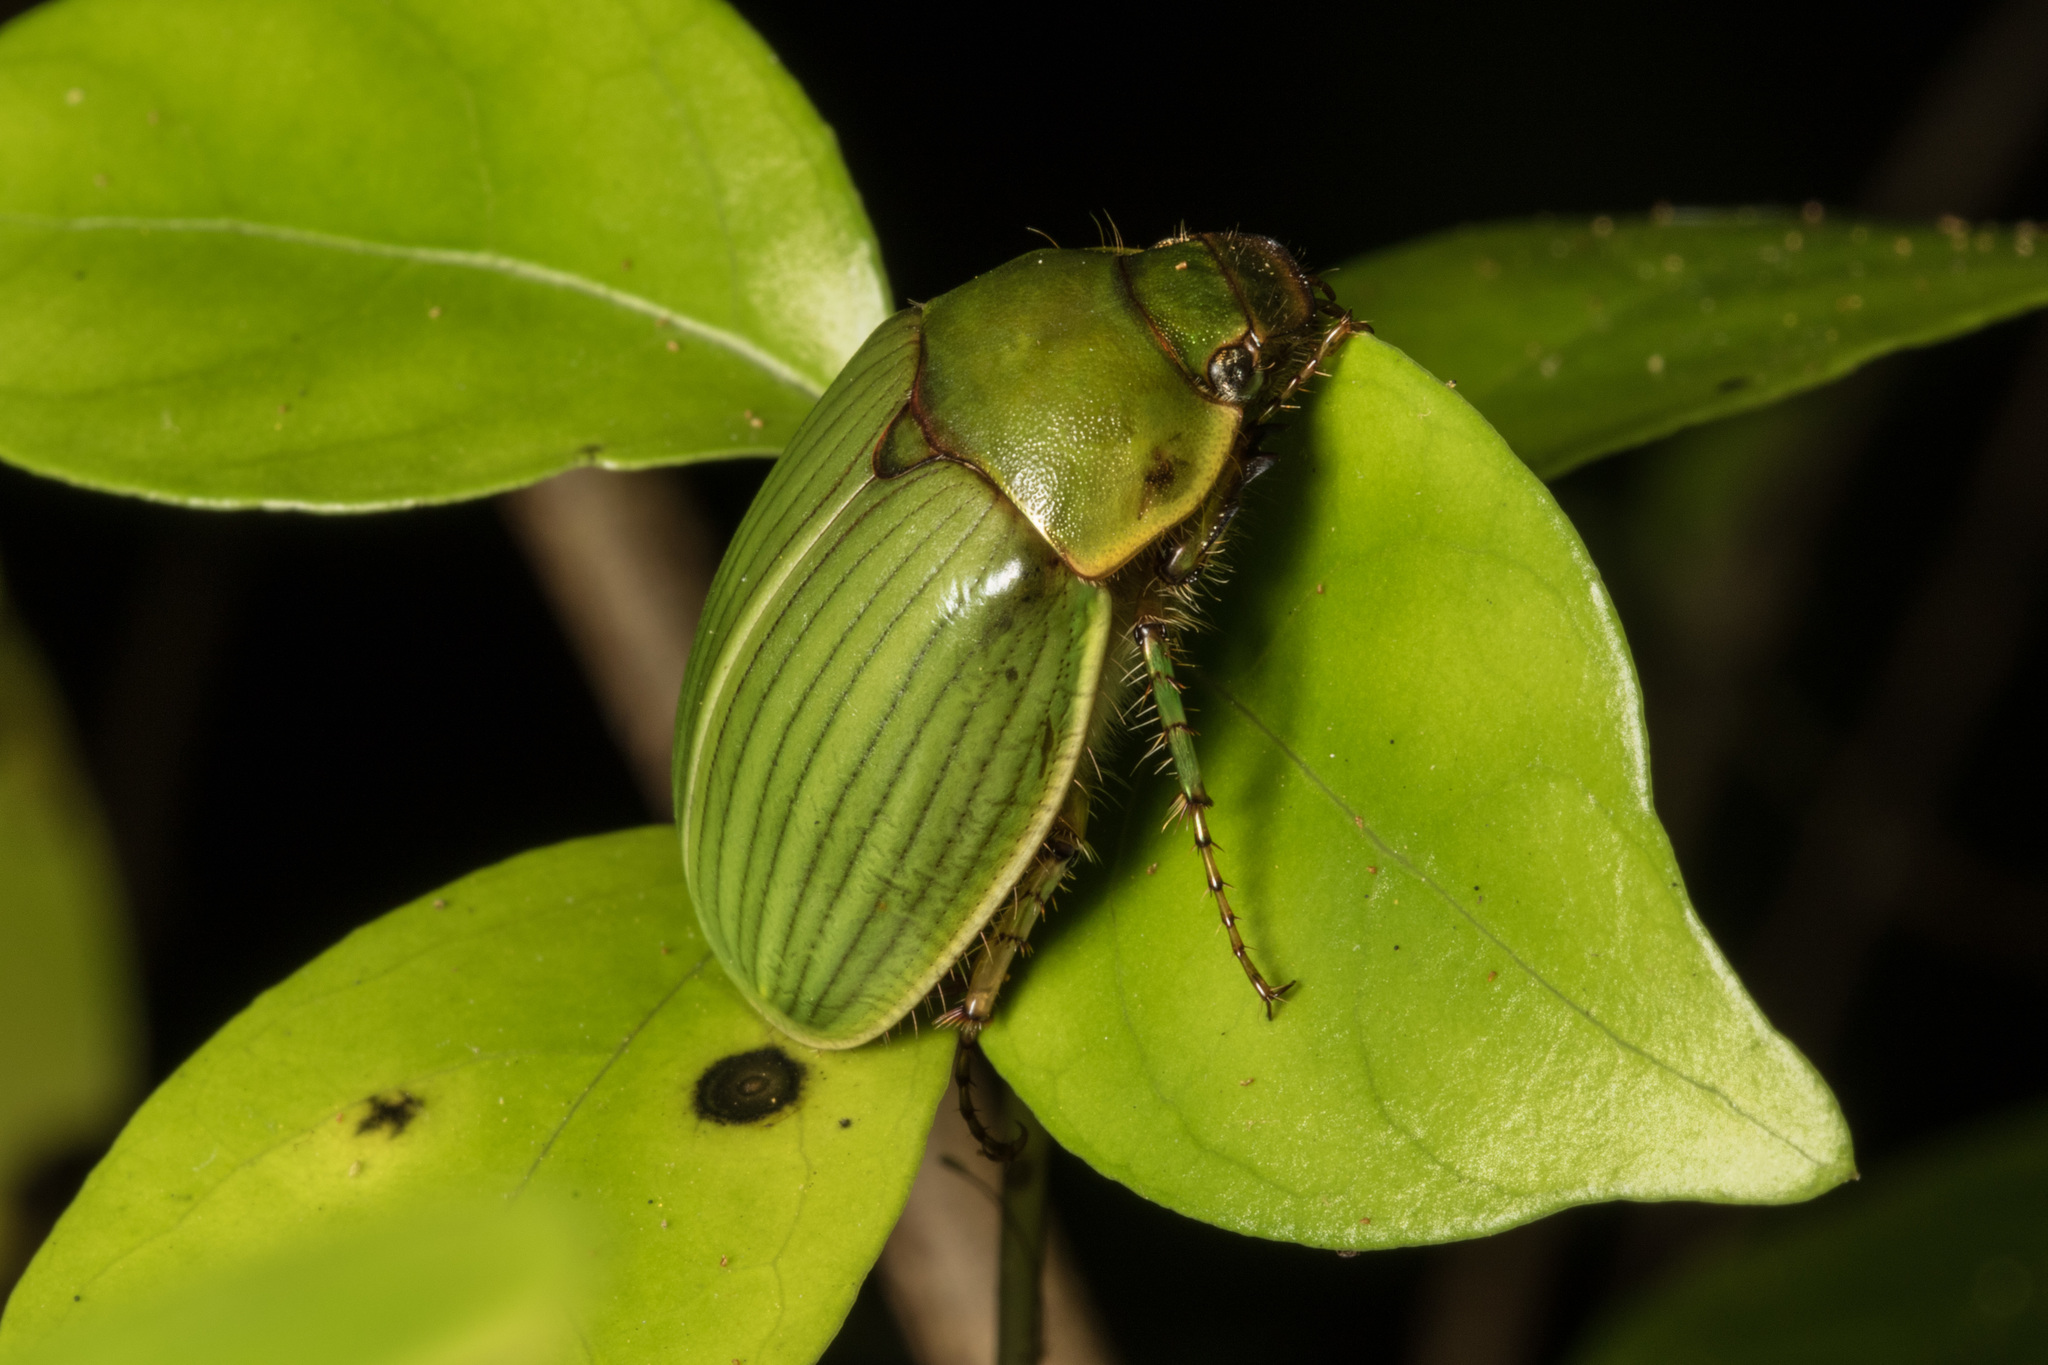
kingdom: Animalia
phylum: Arthropoda
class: Insecta
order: Coleoptera
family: Scarabaeidae
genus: Stethaspis
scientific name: Stethaspis longicornis
